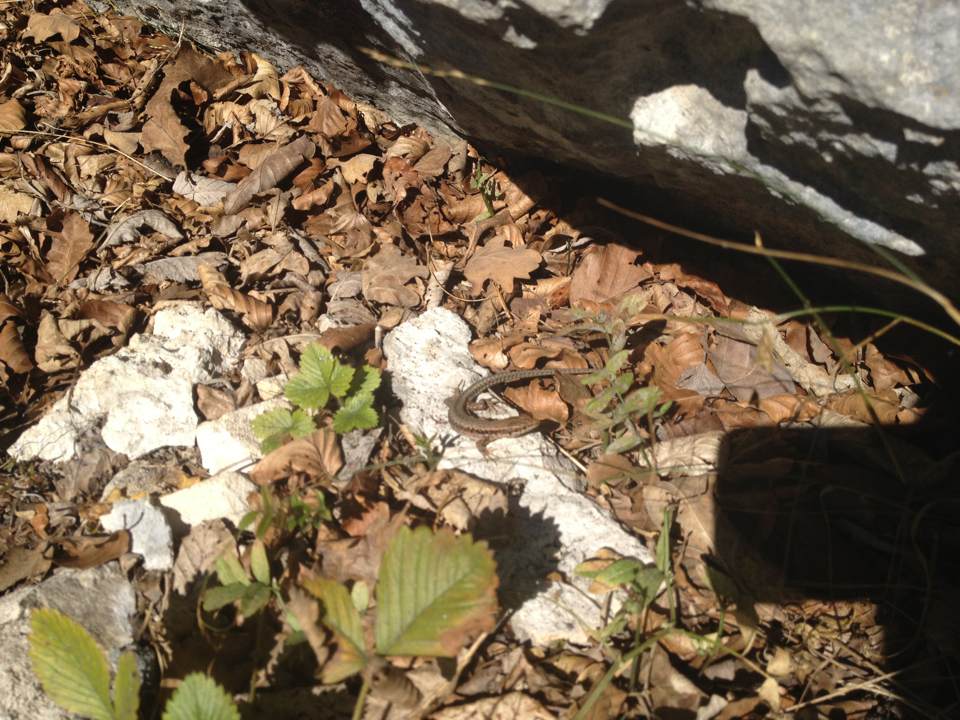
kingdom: Animalia
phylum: Chordata
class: Squamata
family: Lacertidae
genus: Podarcis
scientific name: Podarcis muralis
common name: Common wall lizard
